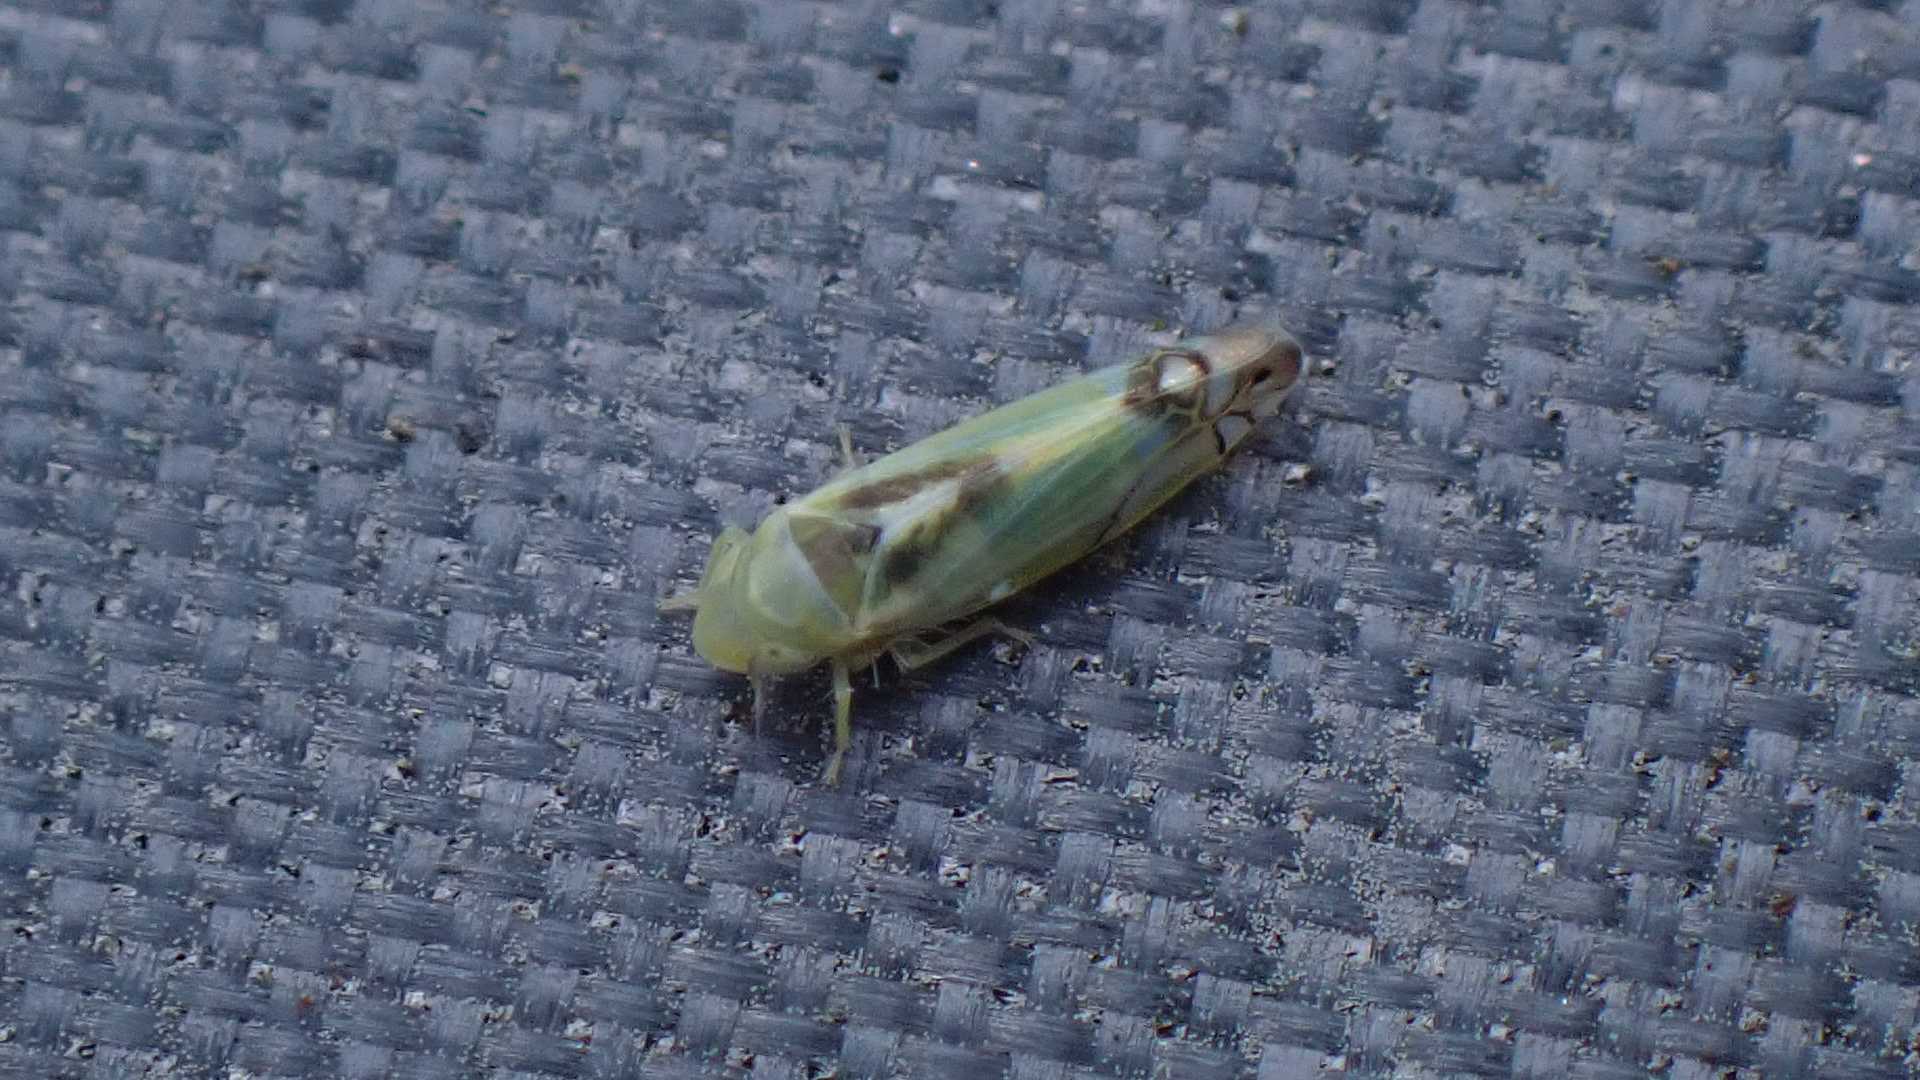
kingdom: Animalia
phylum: Arthropoda
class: Insecta
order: Hemiptera
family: Cicadellidae
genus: Zyginella
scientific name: Zyginella pulchra
